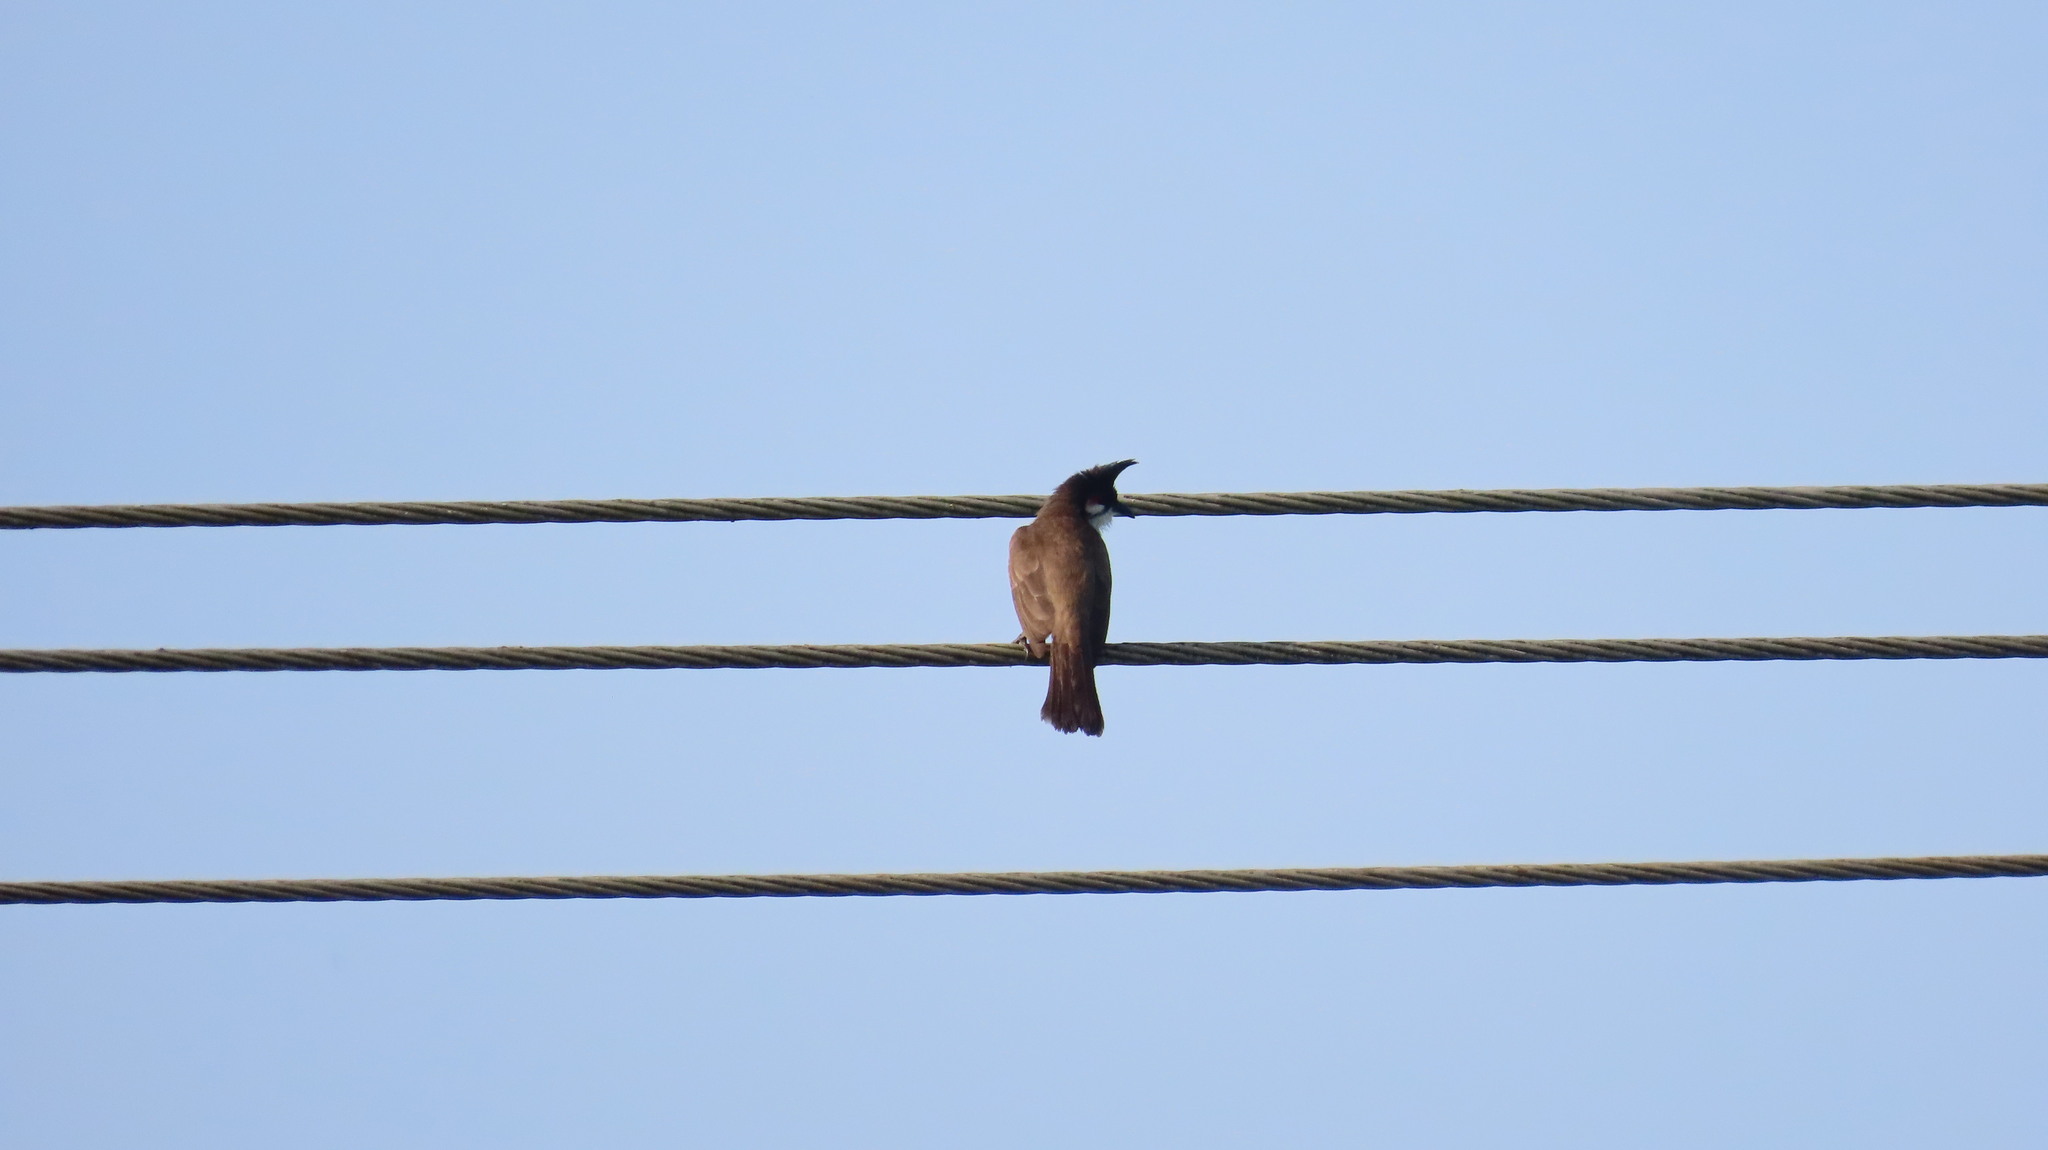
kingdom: Animalia
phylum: Chordata
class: Aves
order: Passeriformes
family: Pycnonotidae
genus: Pycnonotus
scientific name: Pycnonotus jocosus
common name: Red-whiskered bulbul
